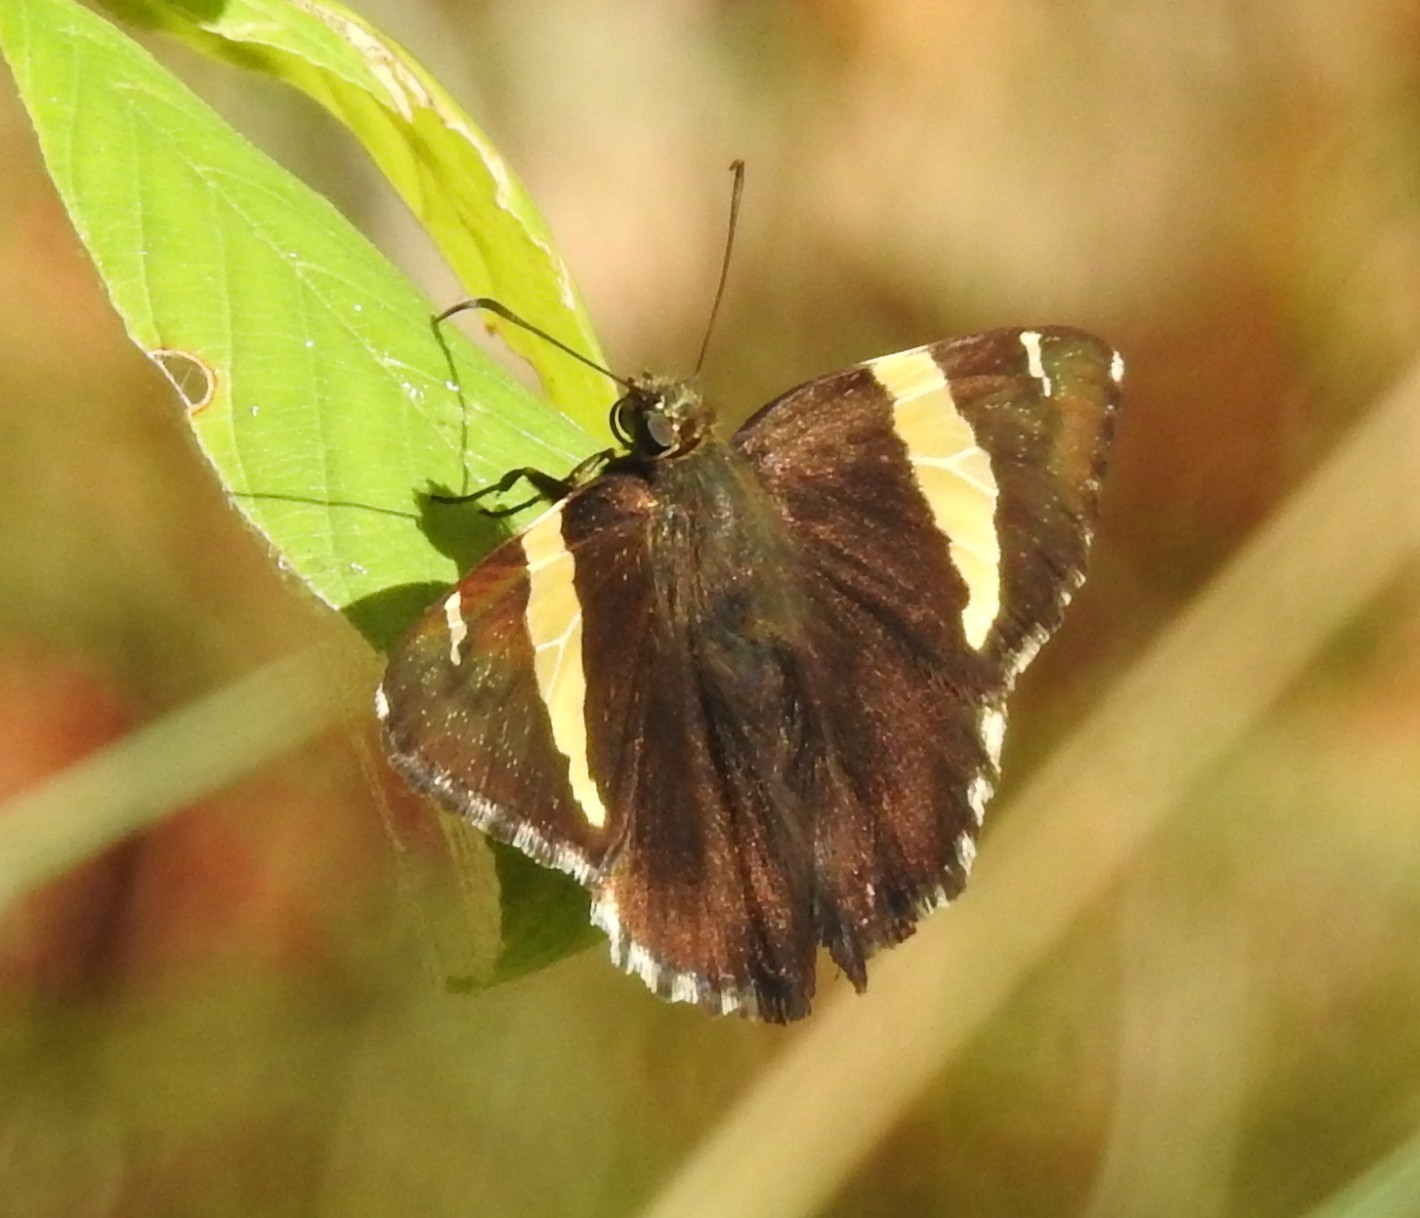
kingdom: Animalia
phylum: Arthropoda
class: Arachnida
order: Scorpiones
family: Bothriuridae
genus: Telegonus
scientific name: Telegonus cellus
